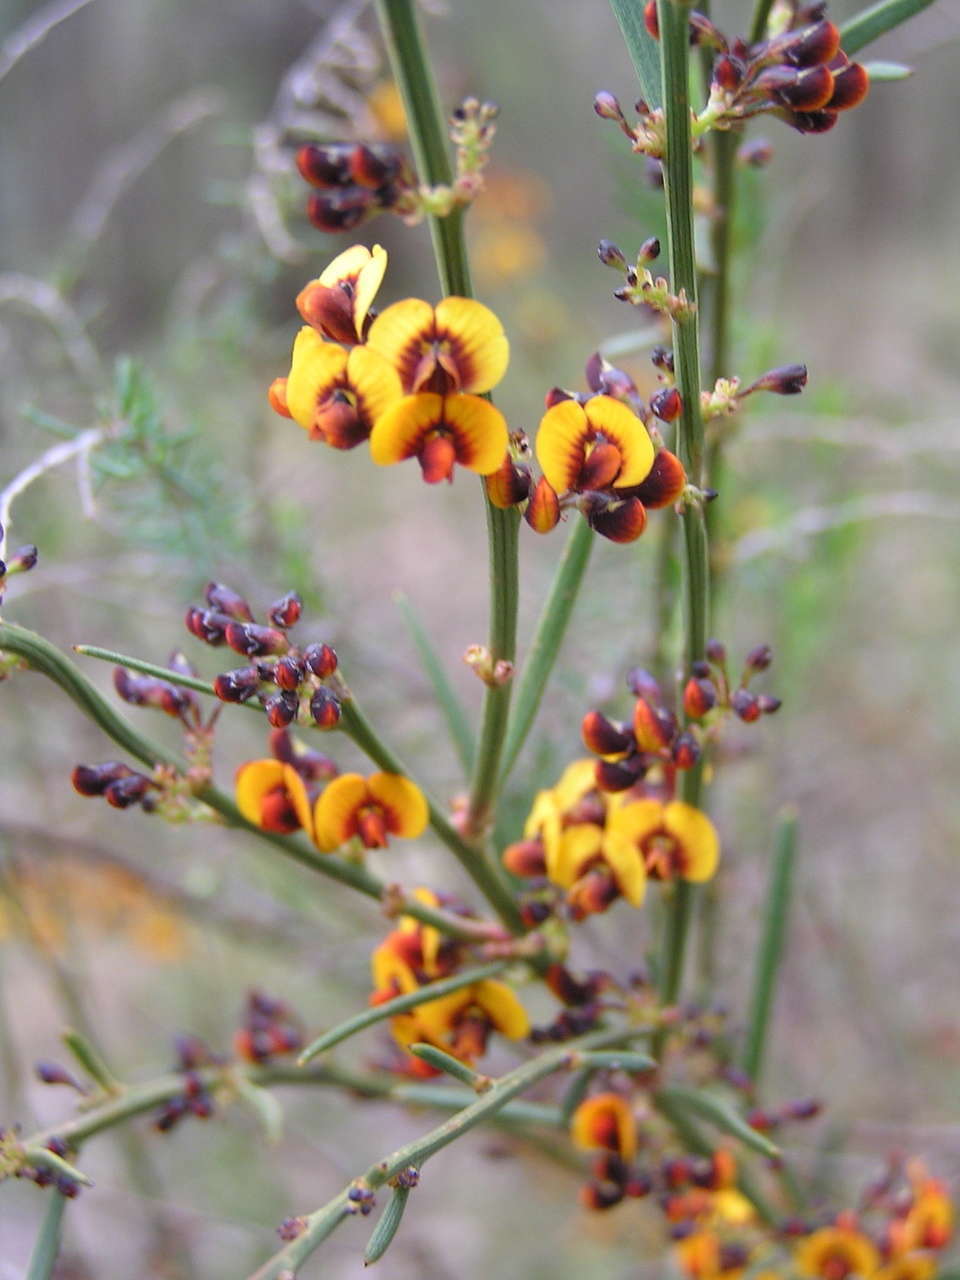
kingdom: Plantae
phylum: Tracheophyta
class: Magnoliopsida
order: Fabales
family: Fabaceae
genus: Daviesia
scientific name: Daviesia leptophylla
